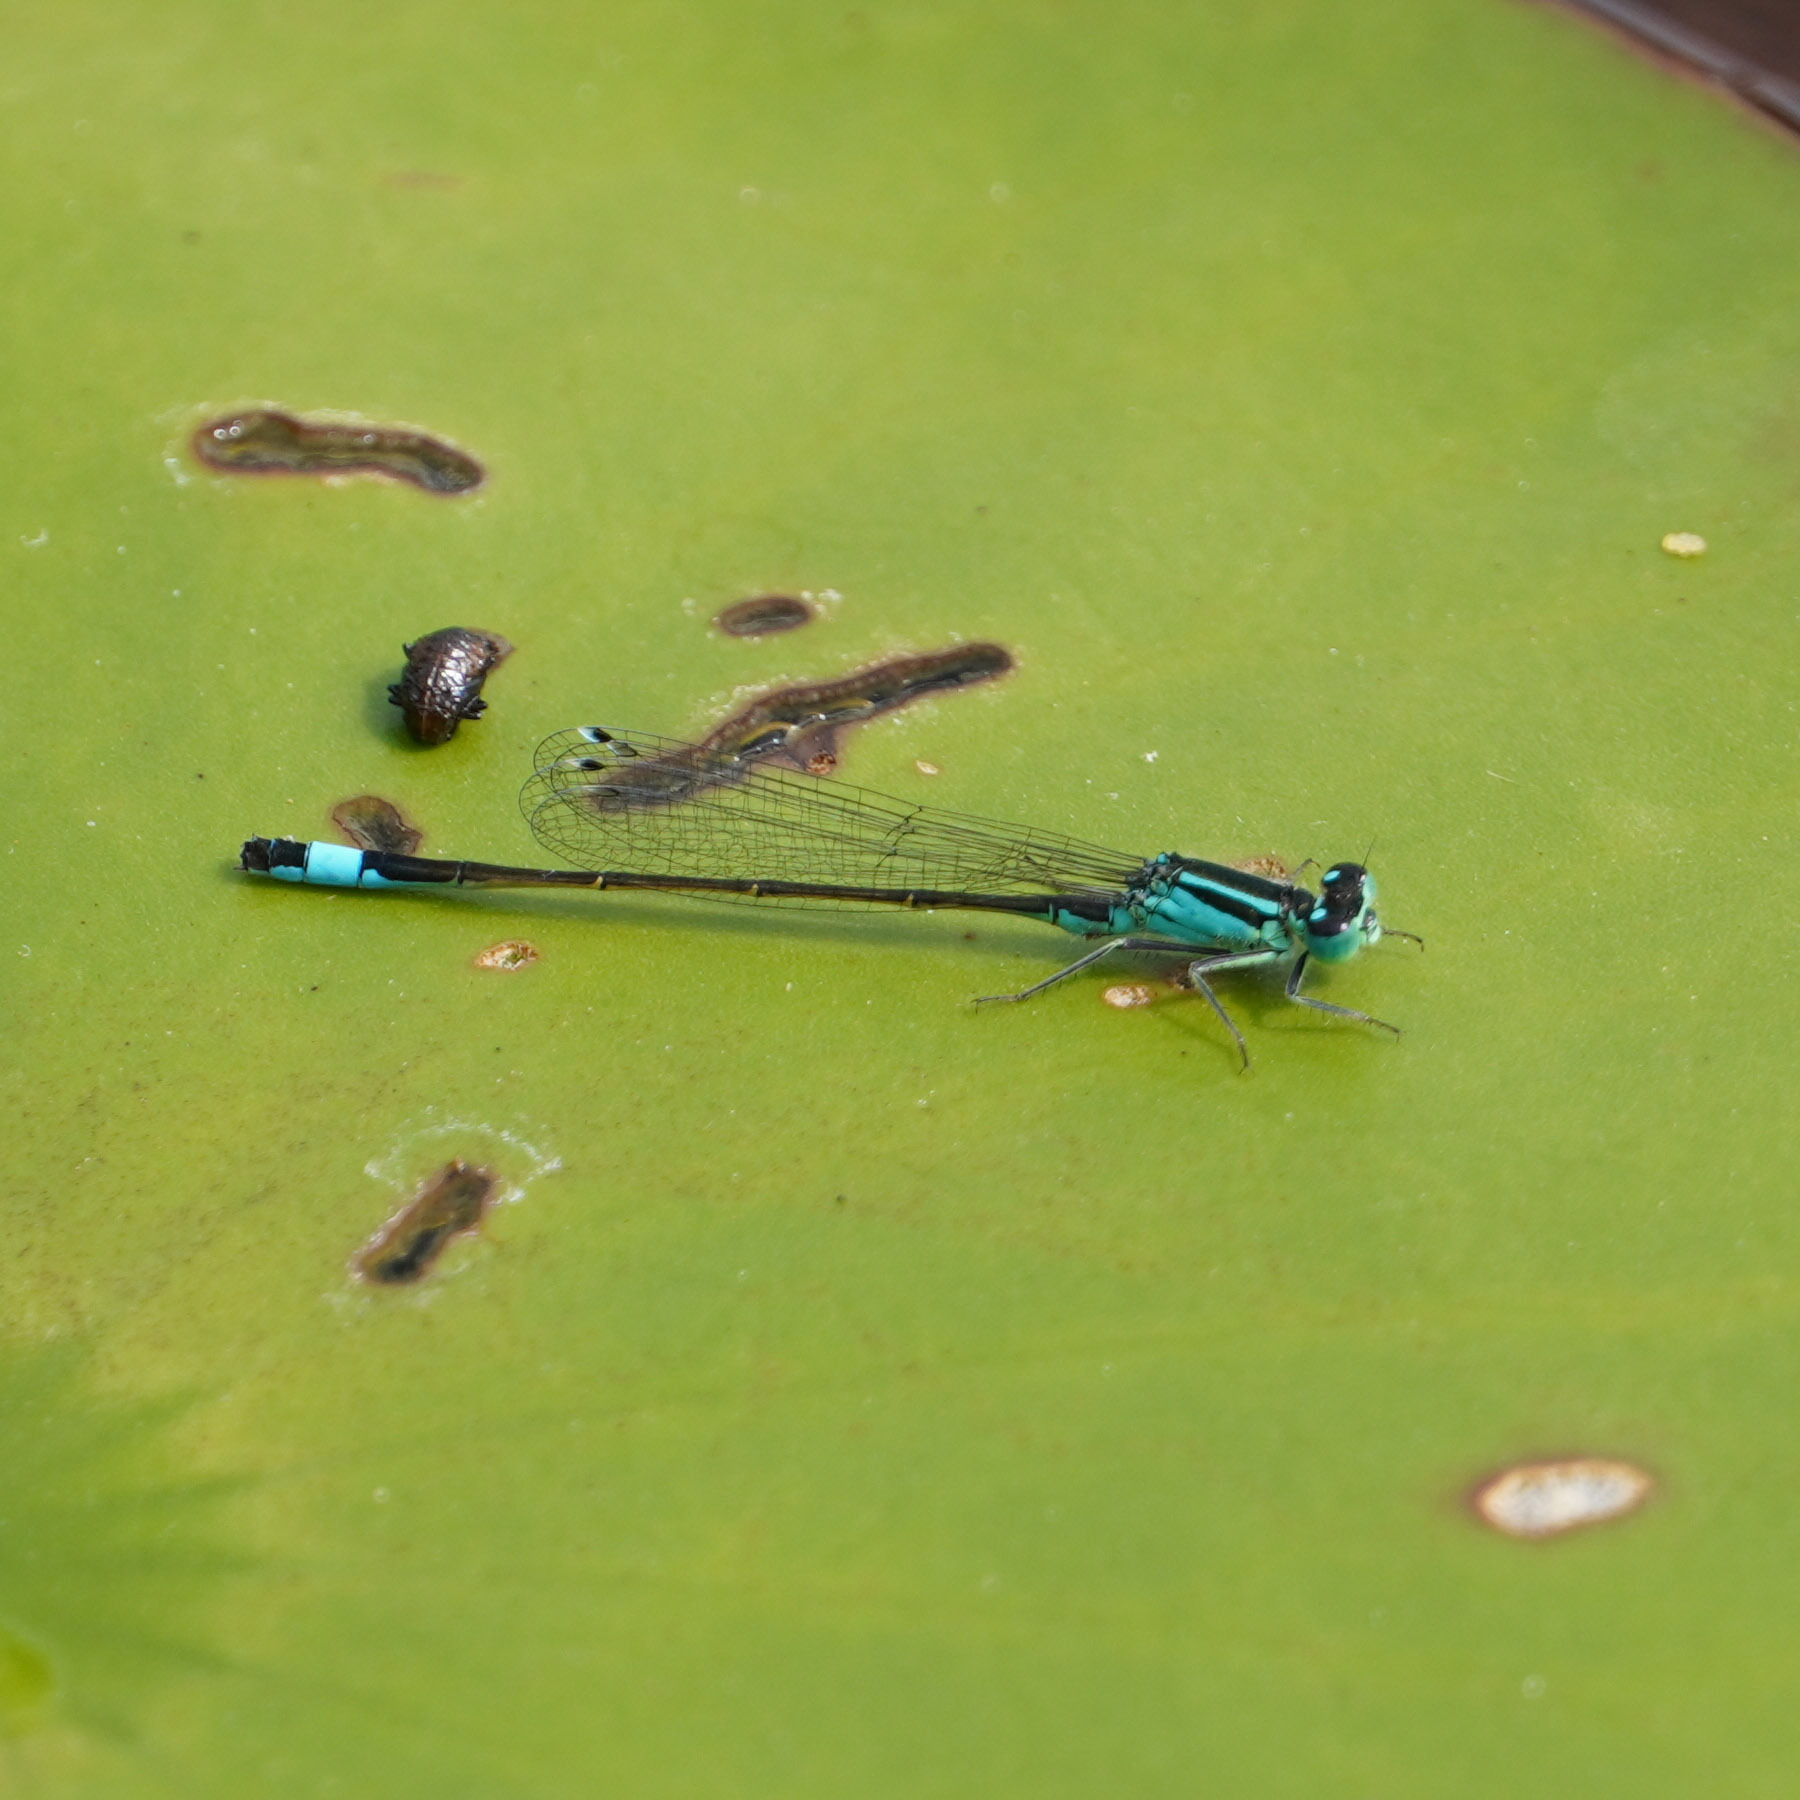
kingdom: Animalia
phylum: Arthropoda
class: Insecta
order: Odonata
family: Coenagrionidae
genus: Ischnura
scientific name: Ischnura elegans
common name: Blue-tailed damselfly
